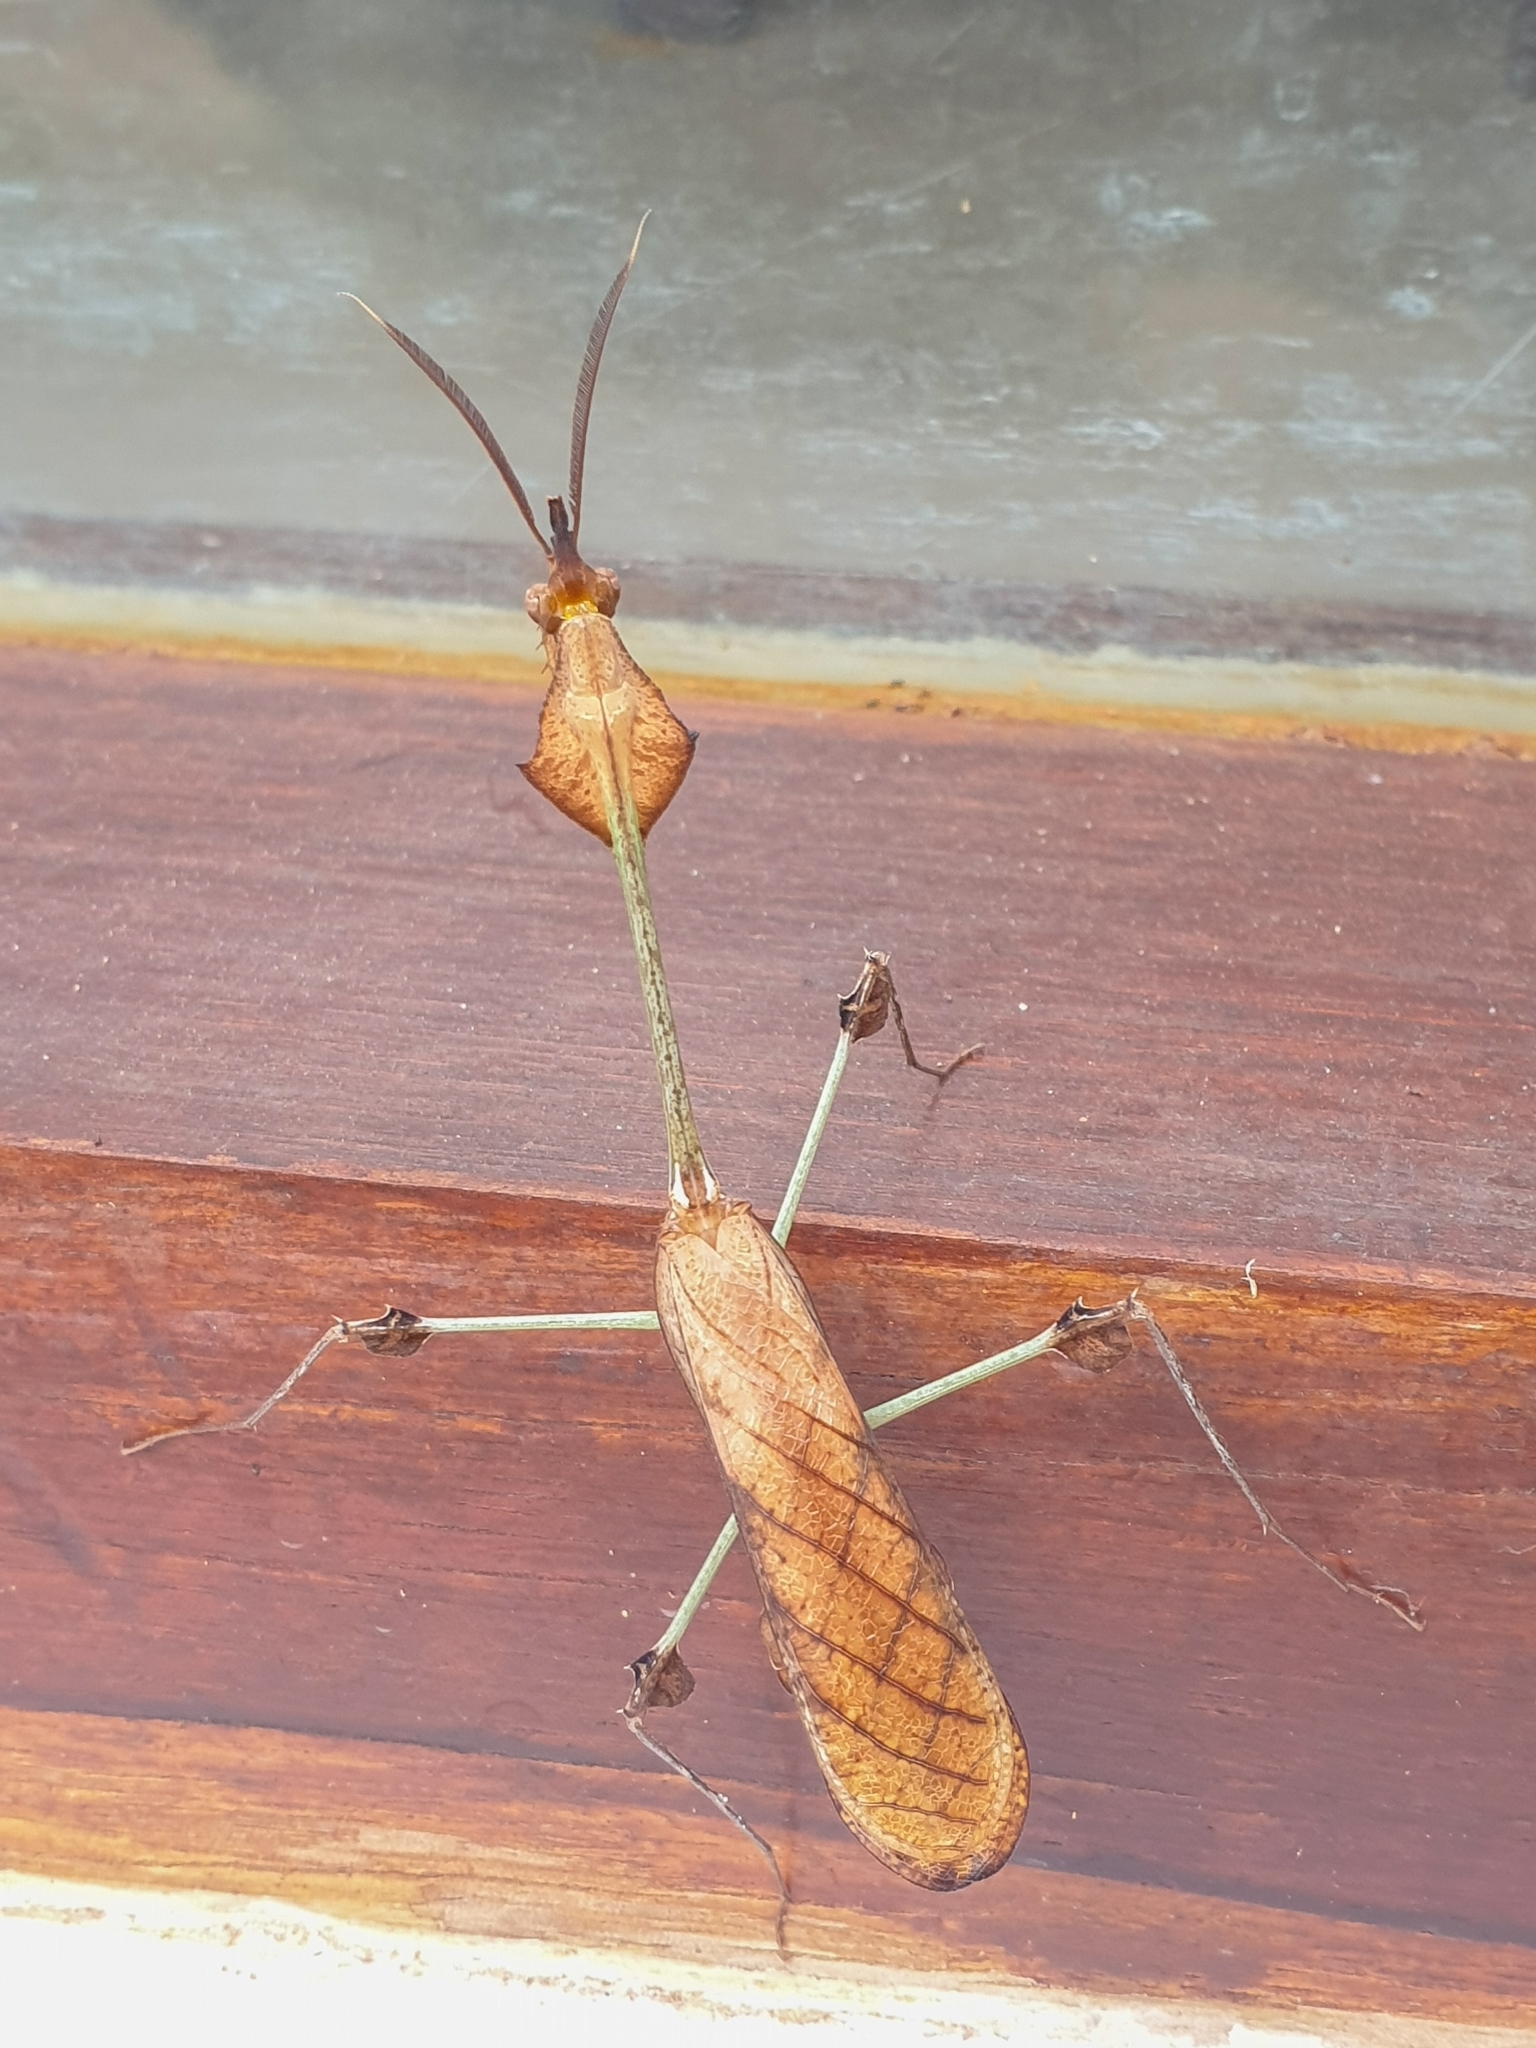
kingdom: Animalia
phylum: Arthropoda
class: Insecta
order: Mantodea
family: Empusidae
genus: Gongylus
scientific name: Gongylus gongylodes
